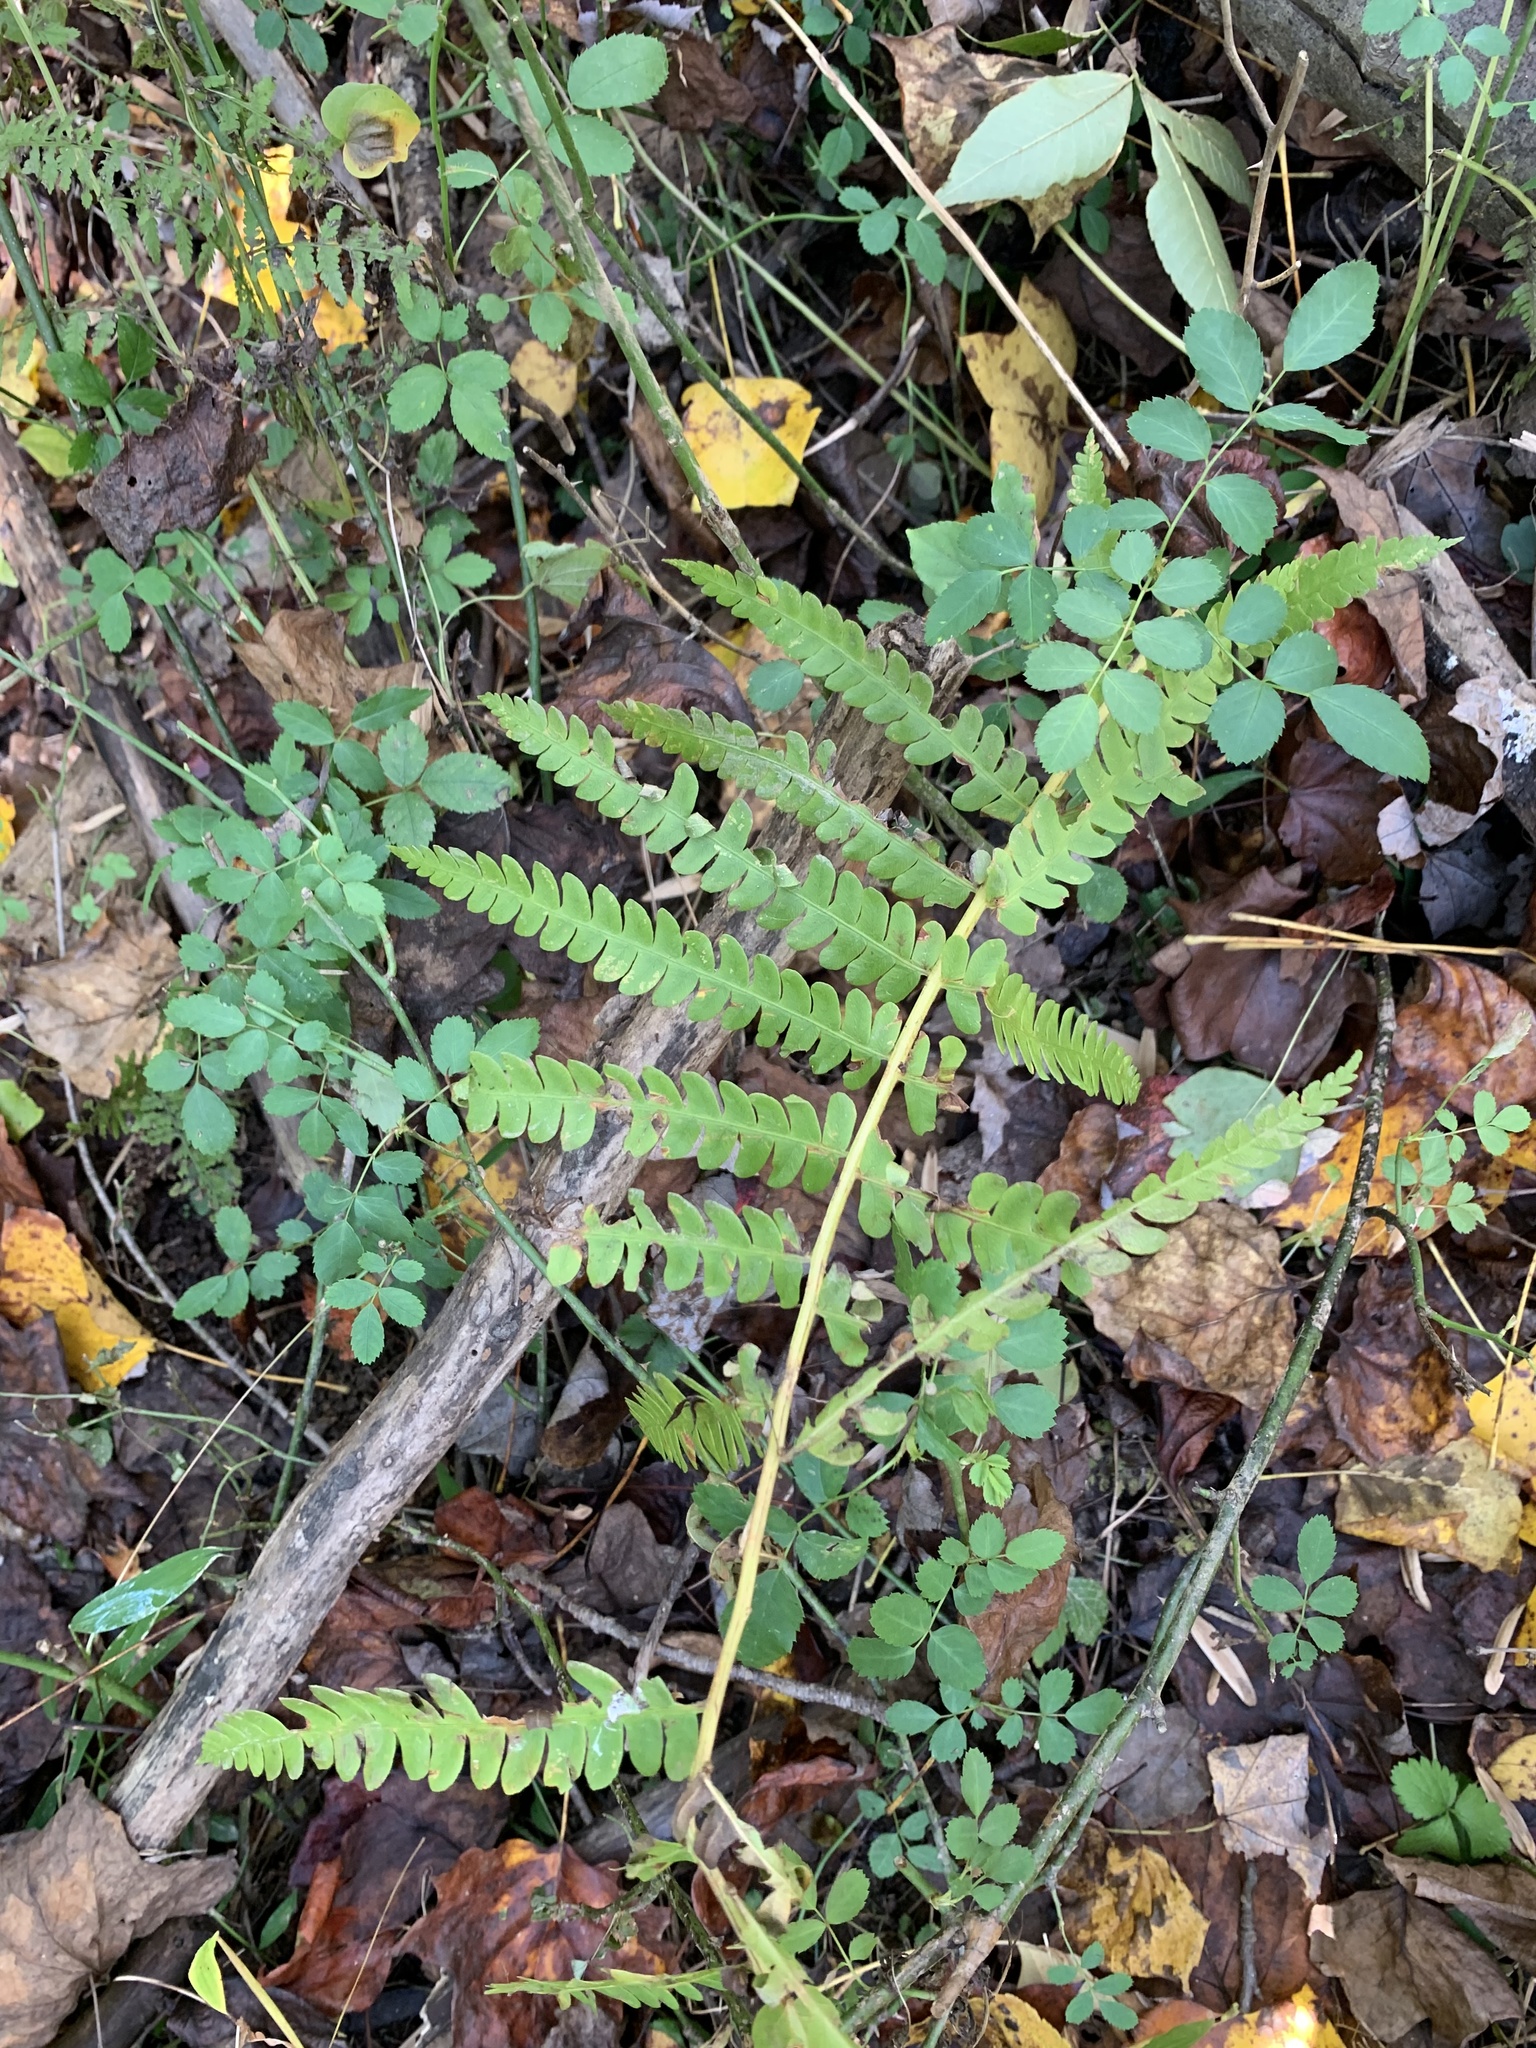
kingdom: Plantae
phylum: Tracheophyta
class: Polypodiopsida
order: Osmundales
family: Osmundaceae
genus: Osmundastrum
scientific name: Osmundastrum cinnamomeum
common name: Cinnamon fern
